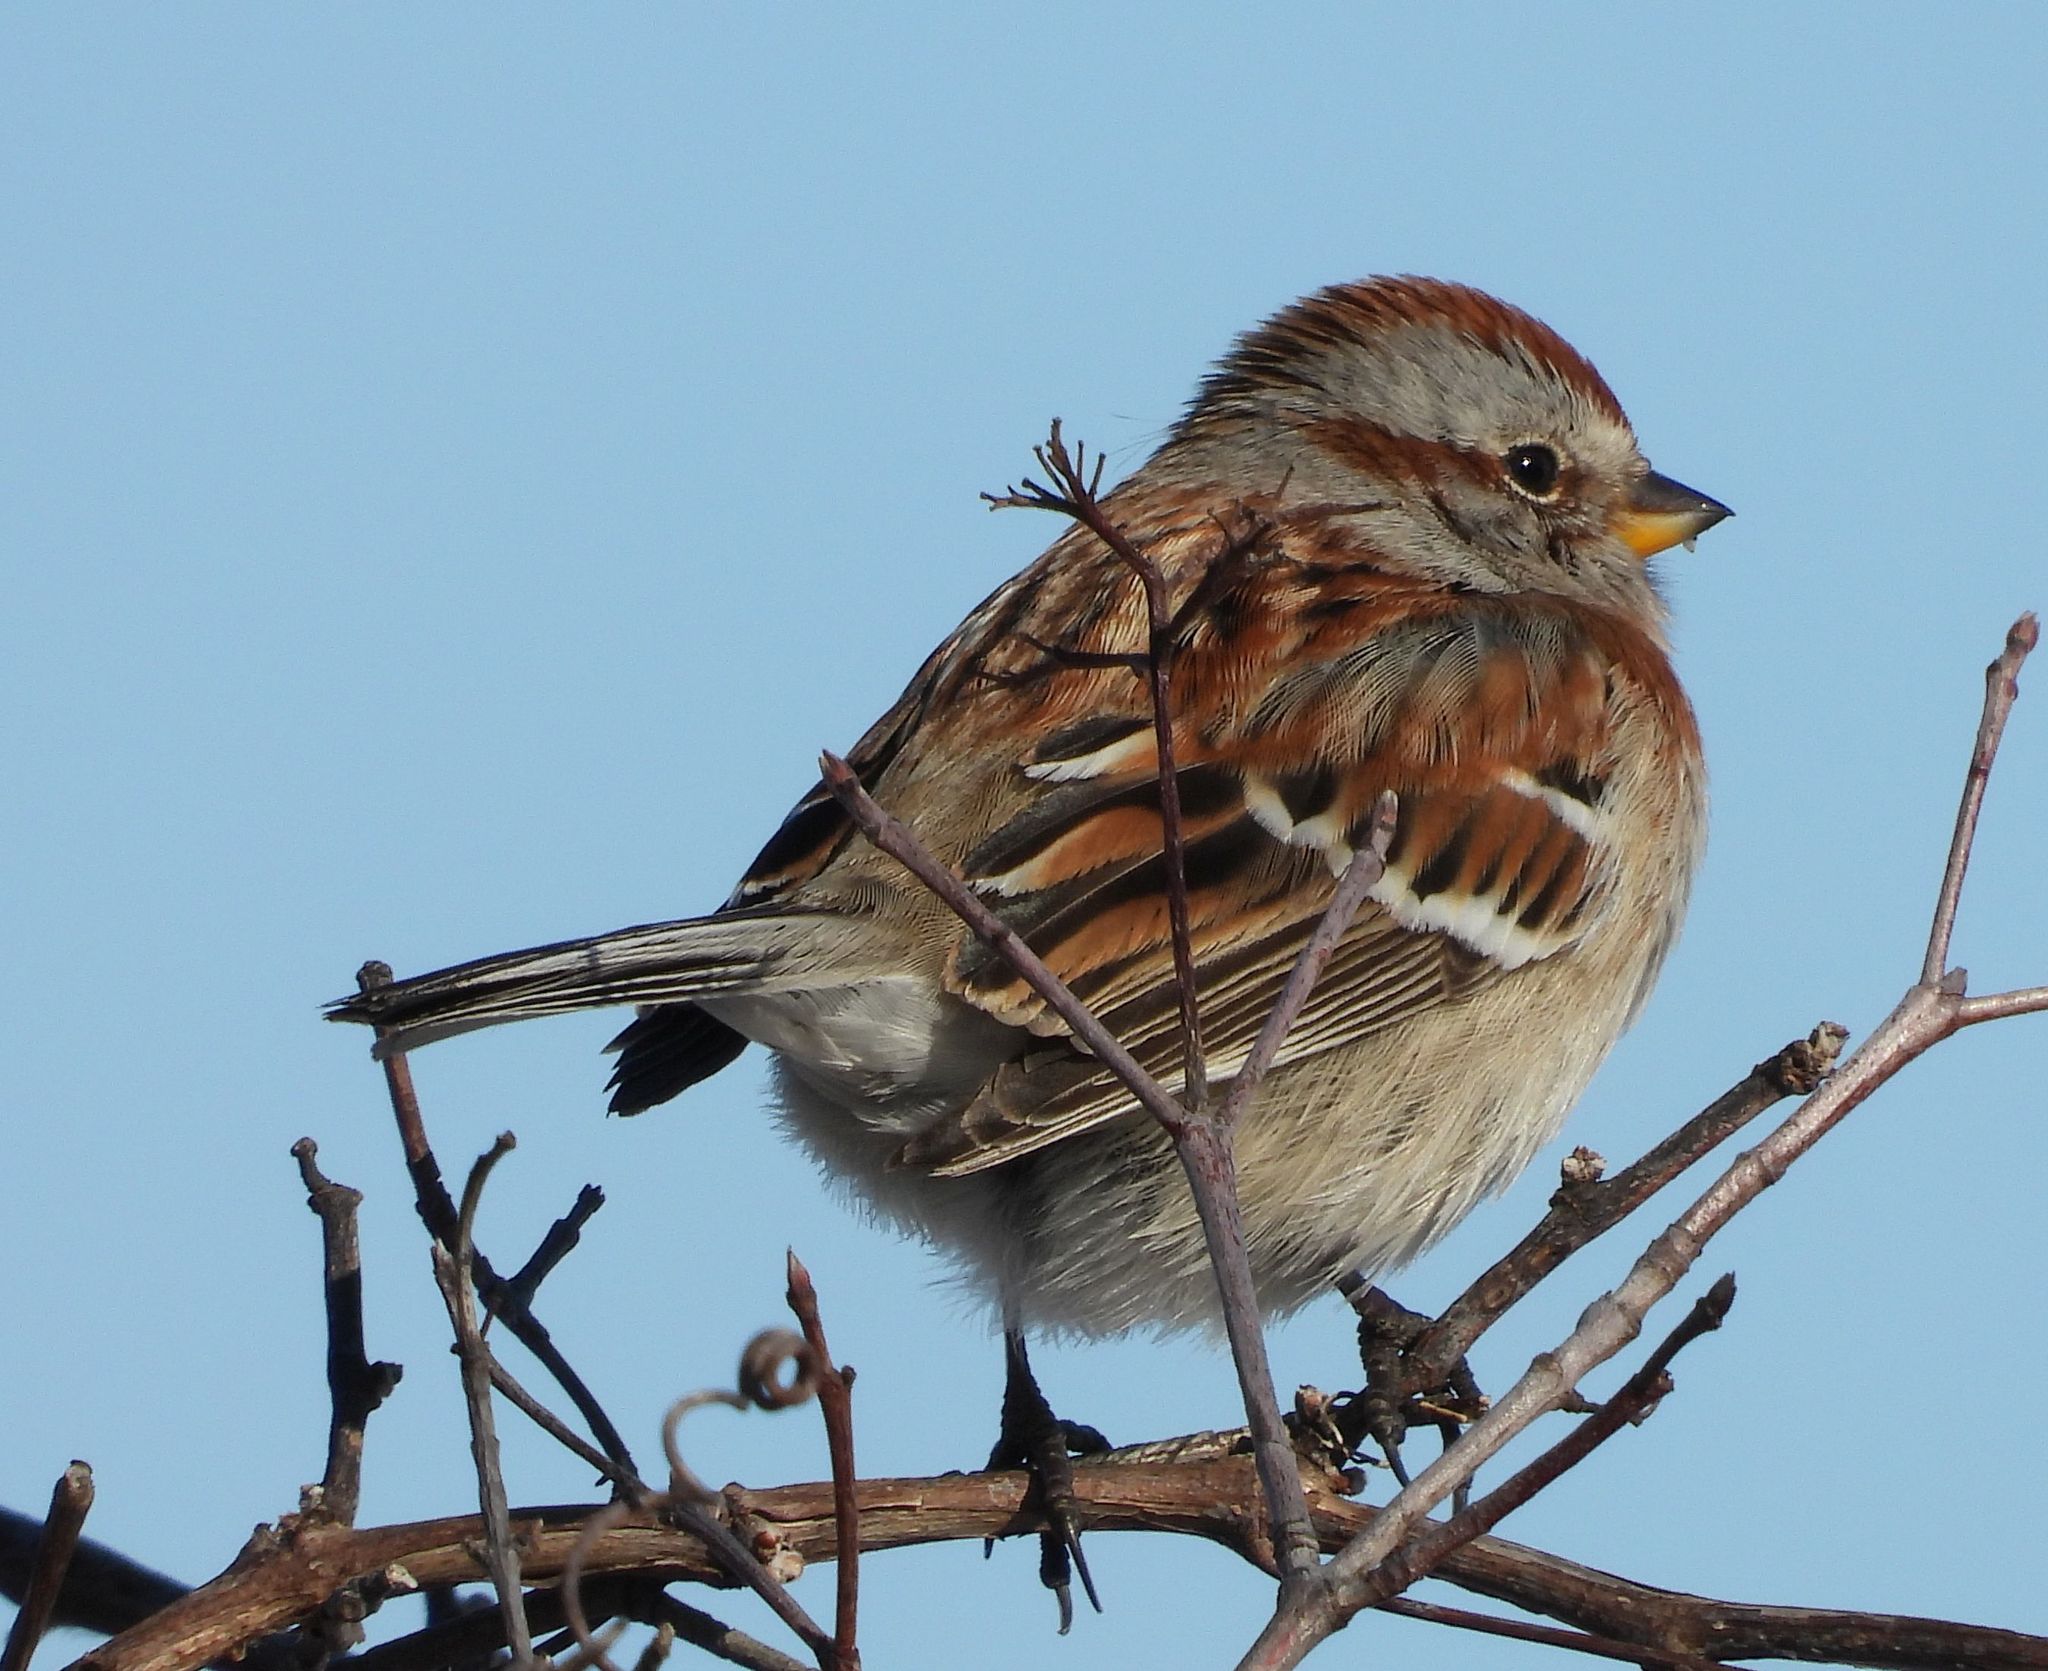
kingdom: Animalia
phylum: Chordata
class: Aves
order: Passeriformes
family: Passerellidae
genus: Spizelloides
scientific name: Spizelloides arborea
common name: American tree sparrow
